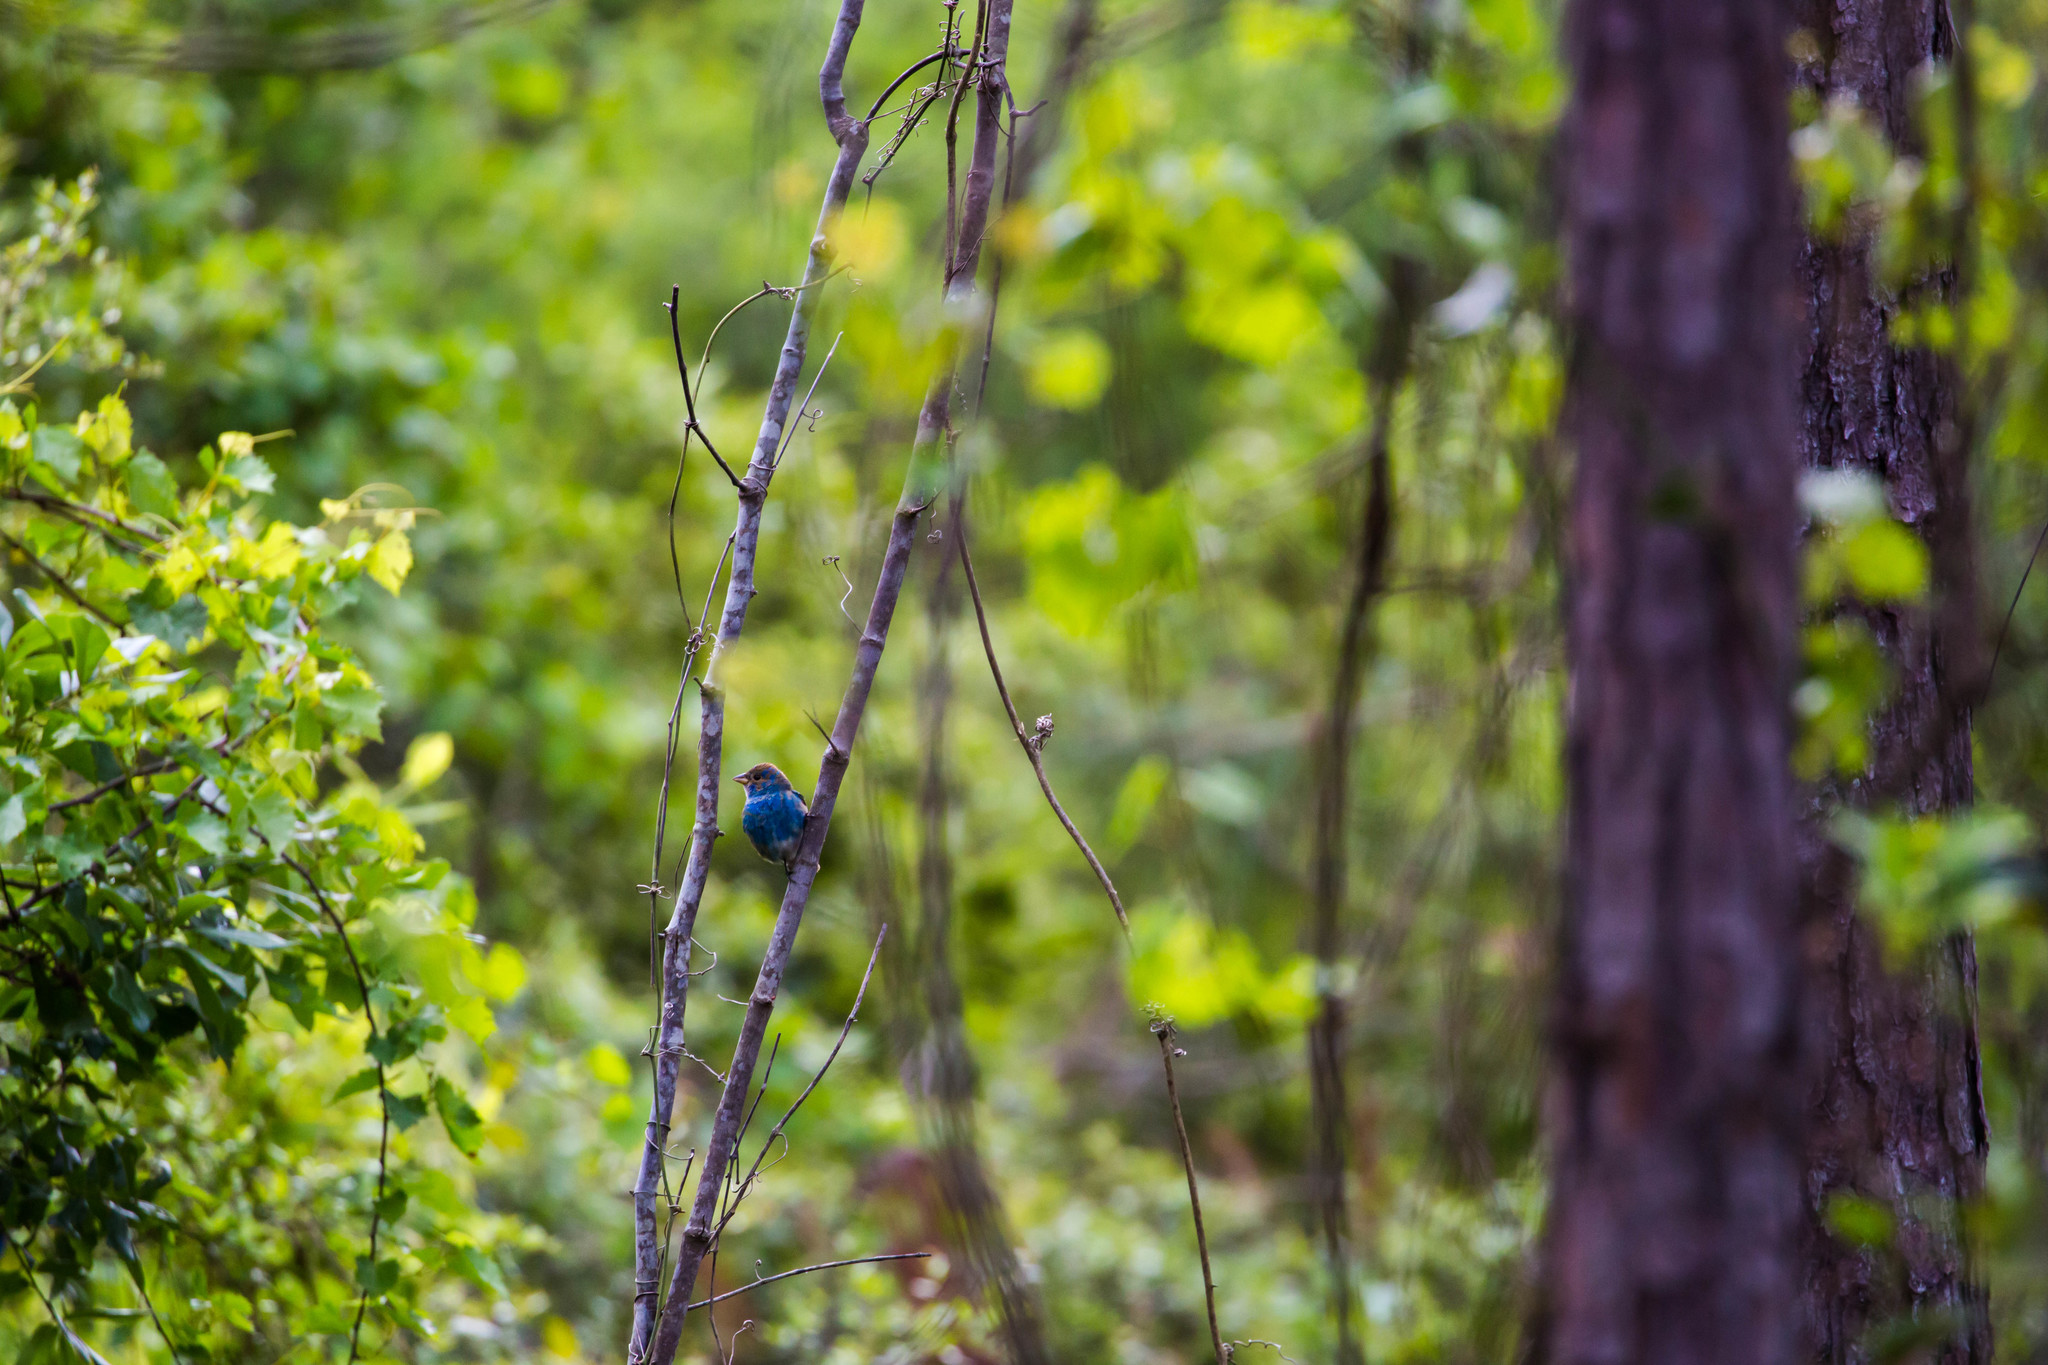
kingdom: Animalia
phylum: Chordata
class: Aves
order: Passeriformes
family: Cardinalidae
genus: Passerina
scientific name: Passerina cyanea
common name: Indigo bunting
